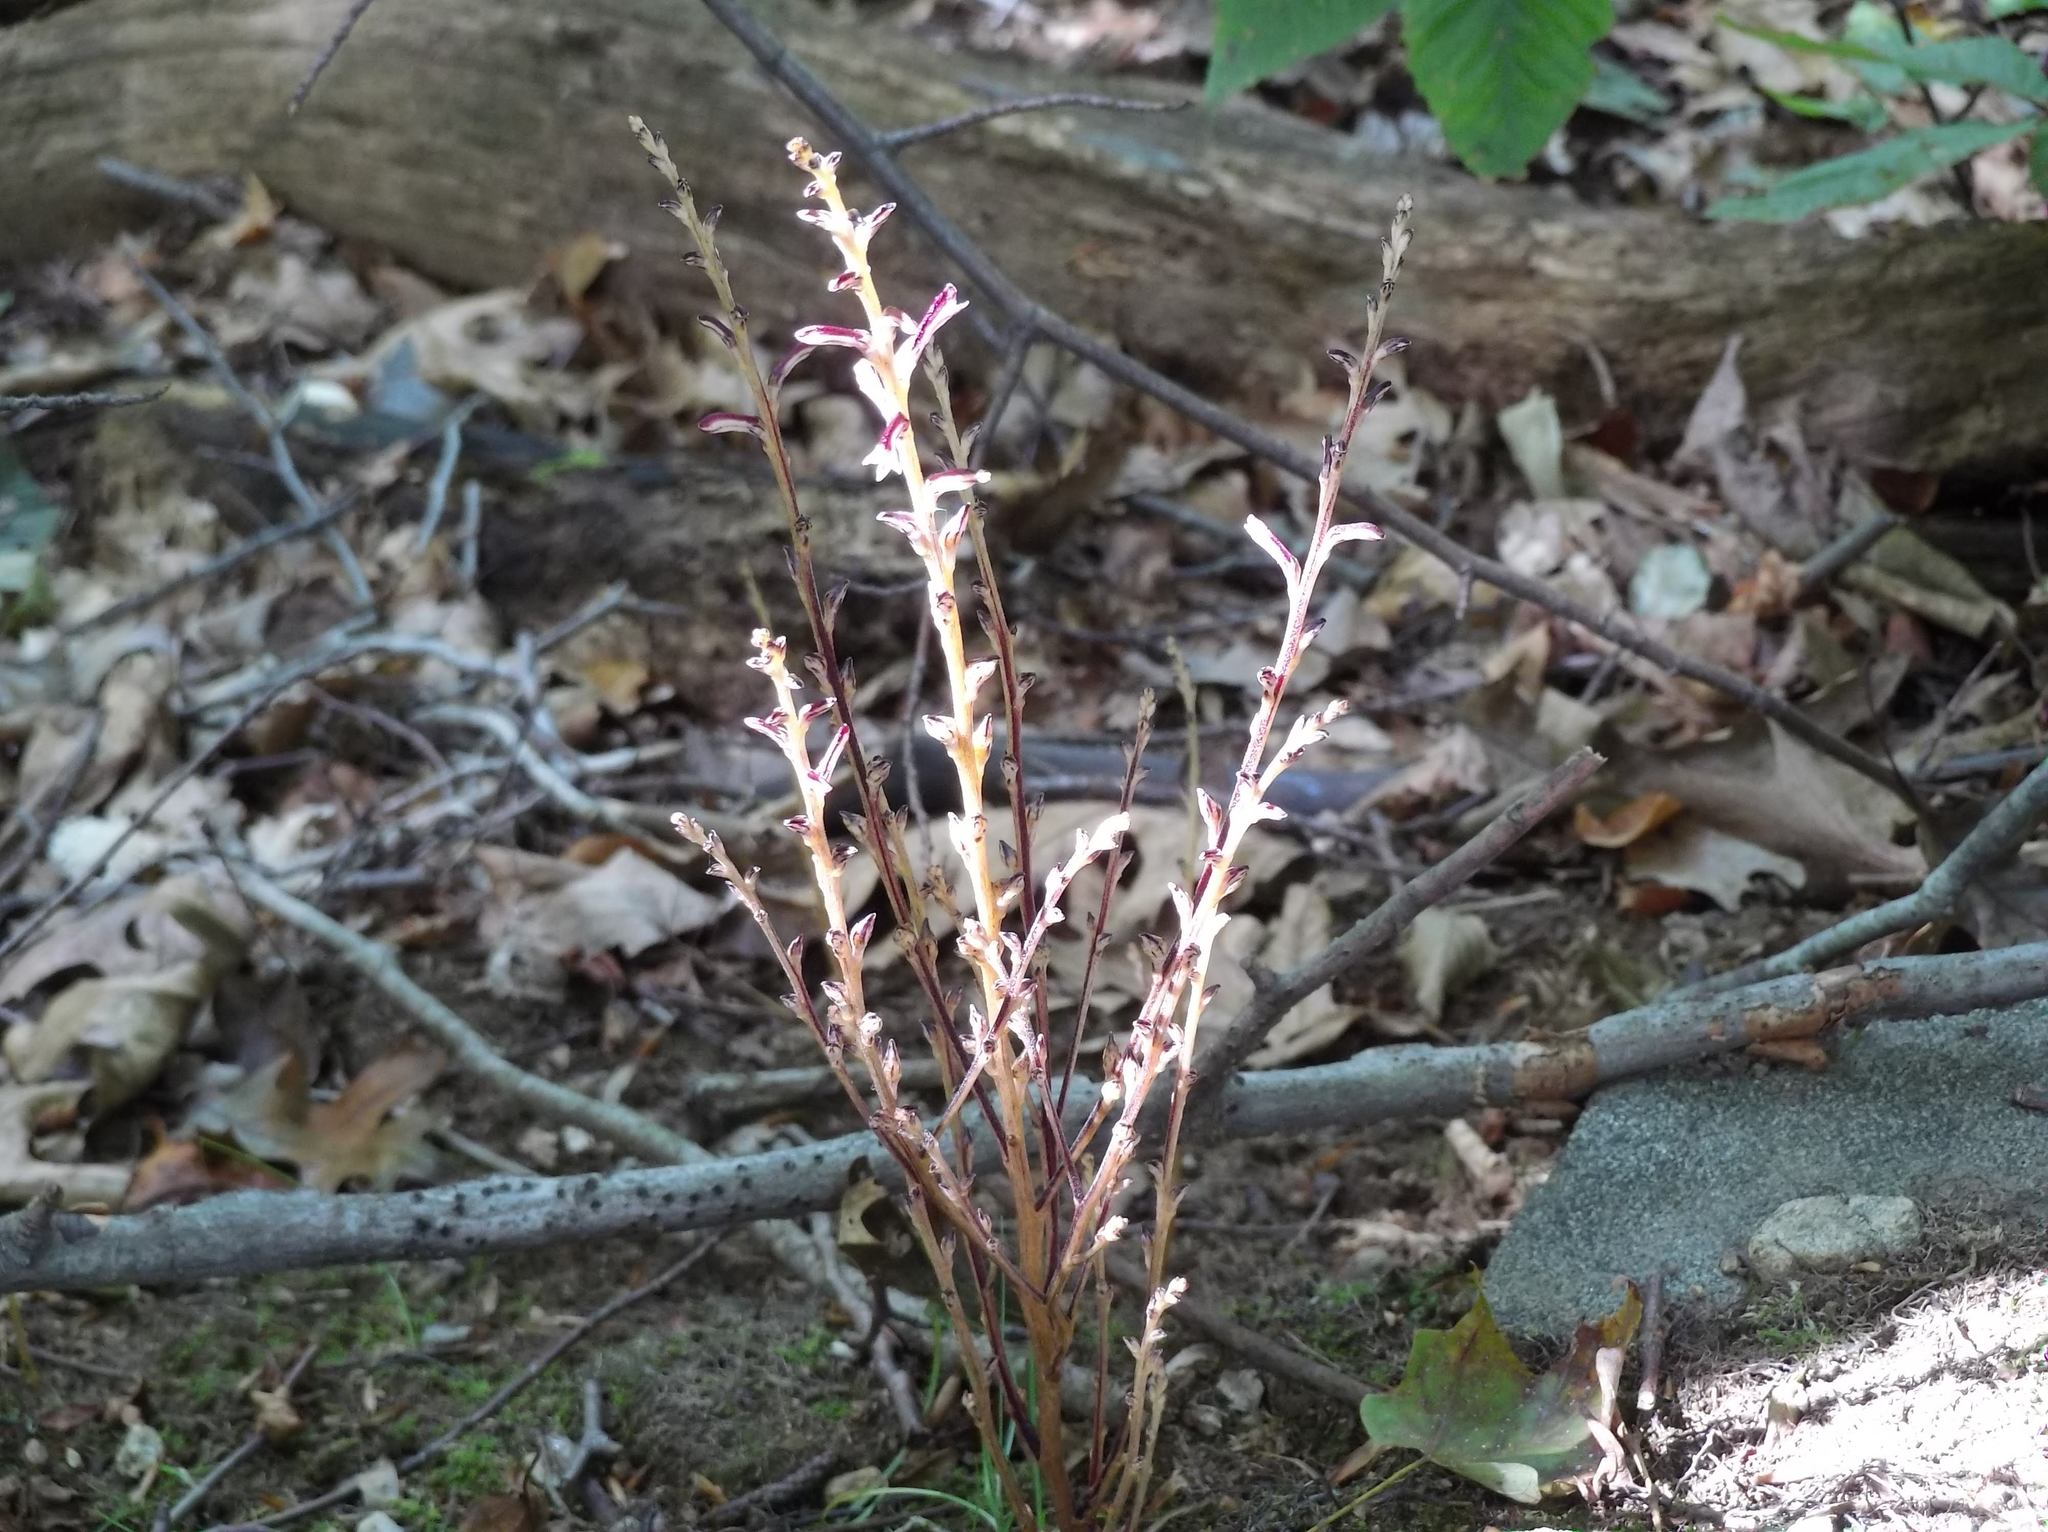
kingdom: Plantae
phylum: Tracheophyta
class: Magnoliopsida
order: Lamiales
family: Orobanchaceae
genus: Epifagus
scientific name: Epifagus virginiana
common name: Beechdrops
